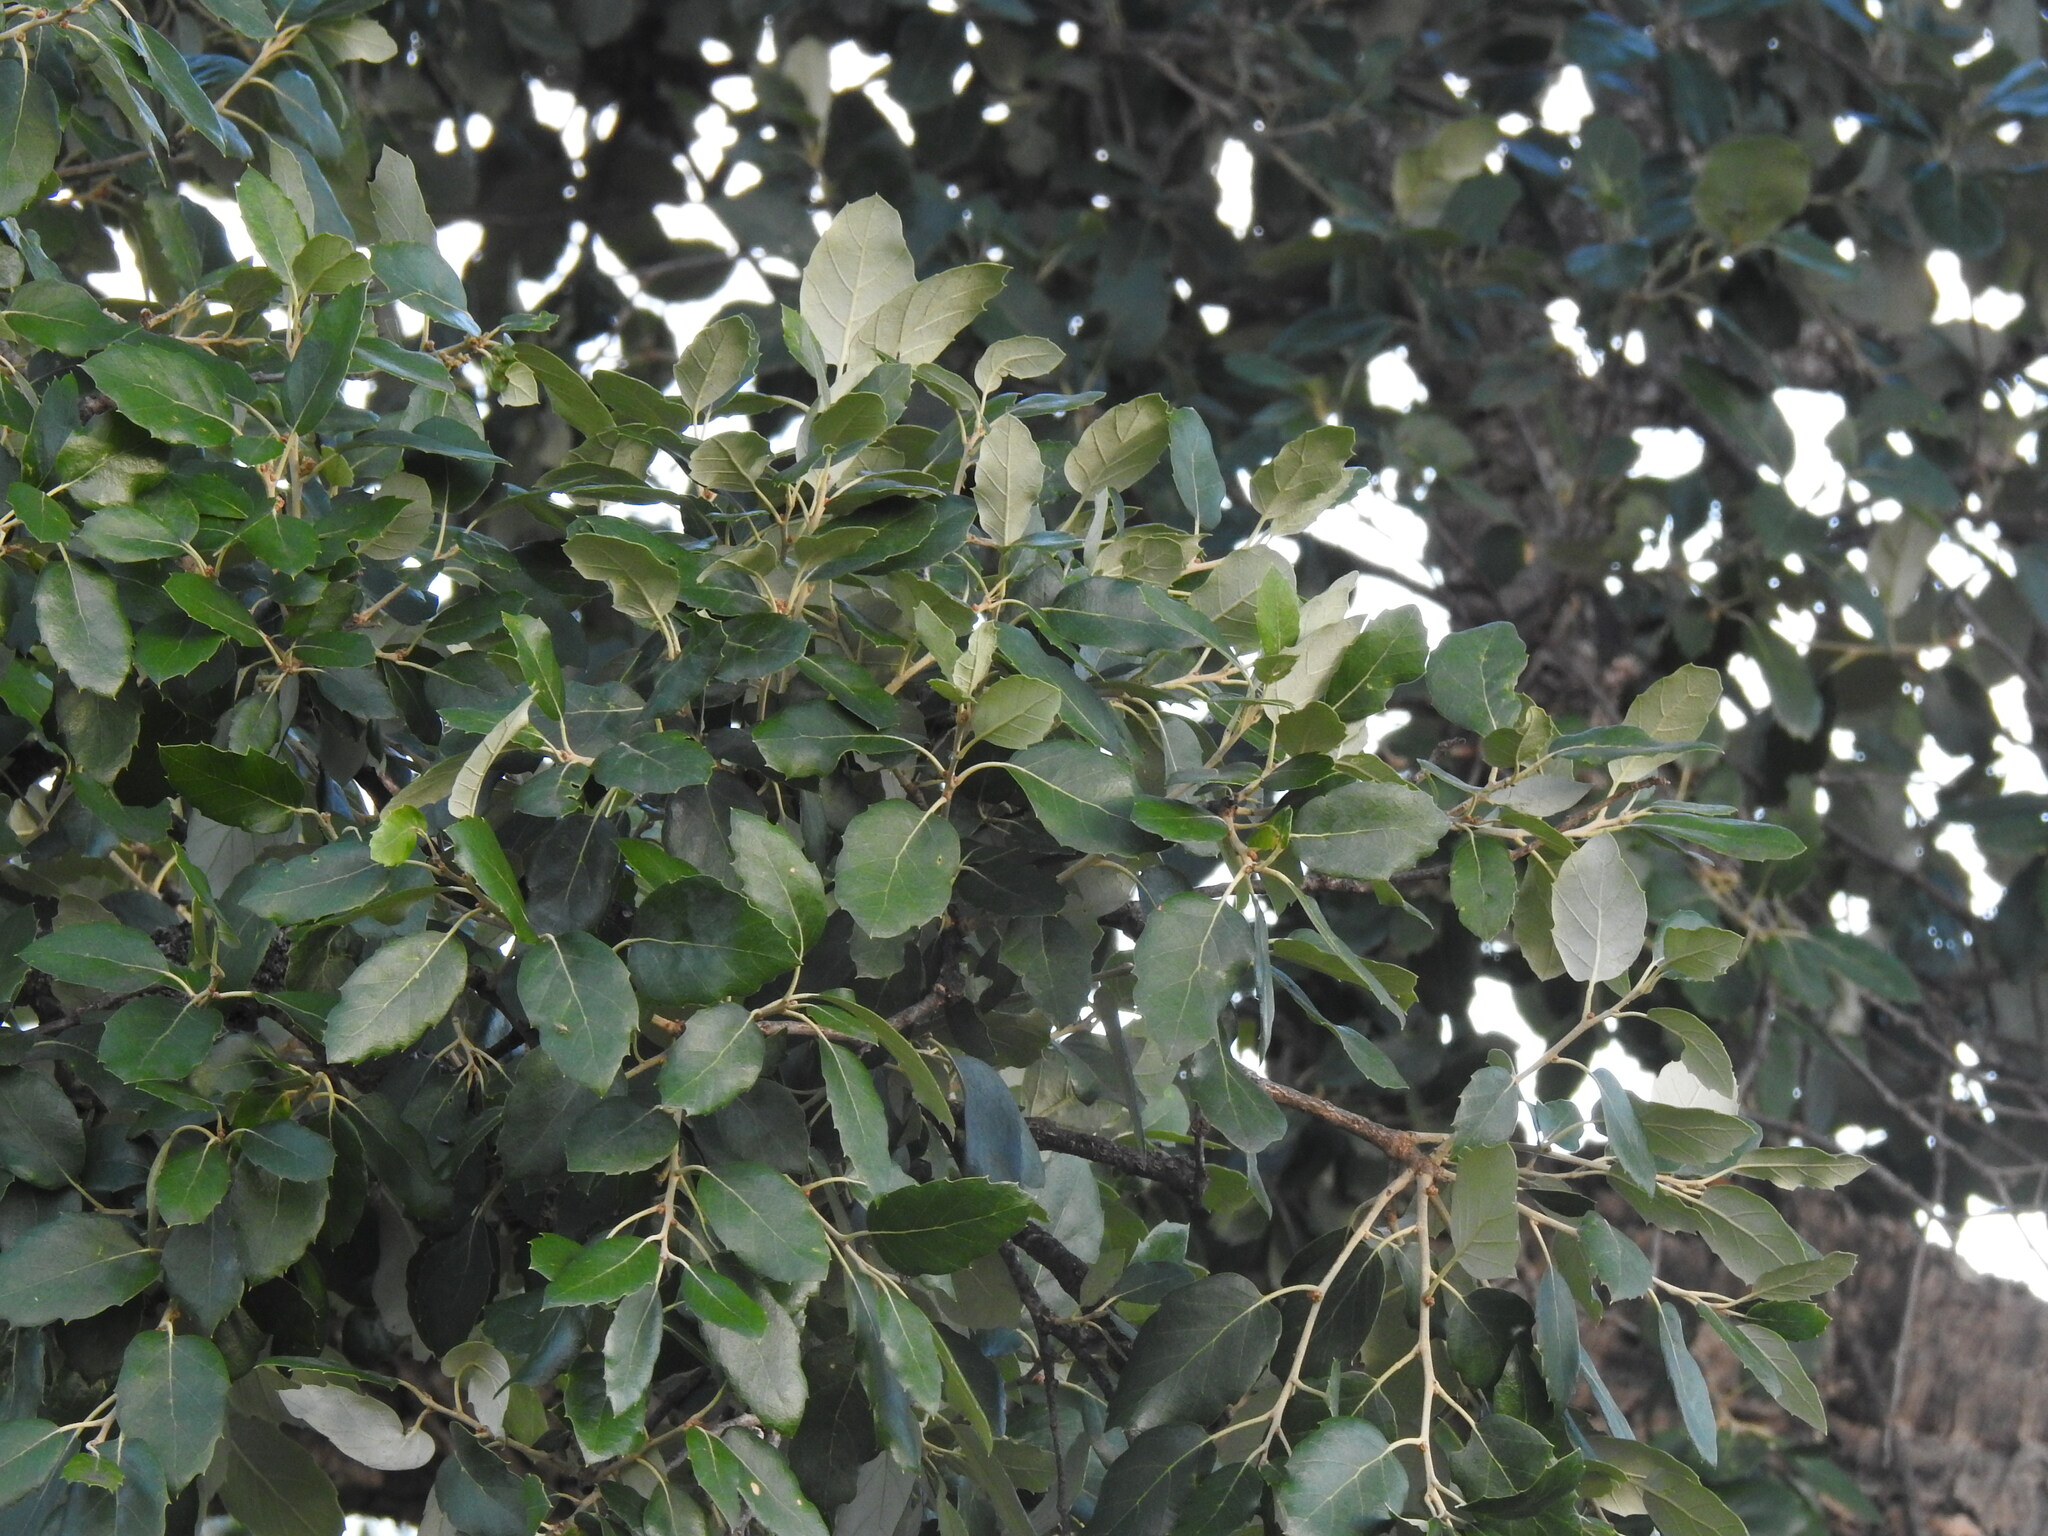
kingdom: Plantae
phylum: Tracheophyta
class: Magnoliopsida
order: Fagales
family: Fagaceae
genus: Quercus
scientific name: Quercus suber
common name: Cork oak
